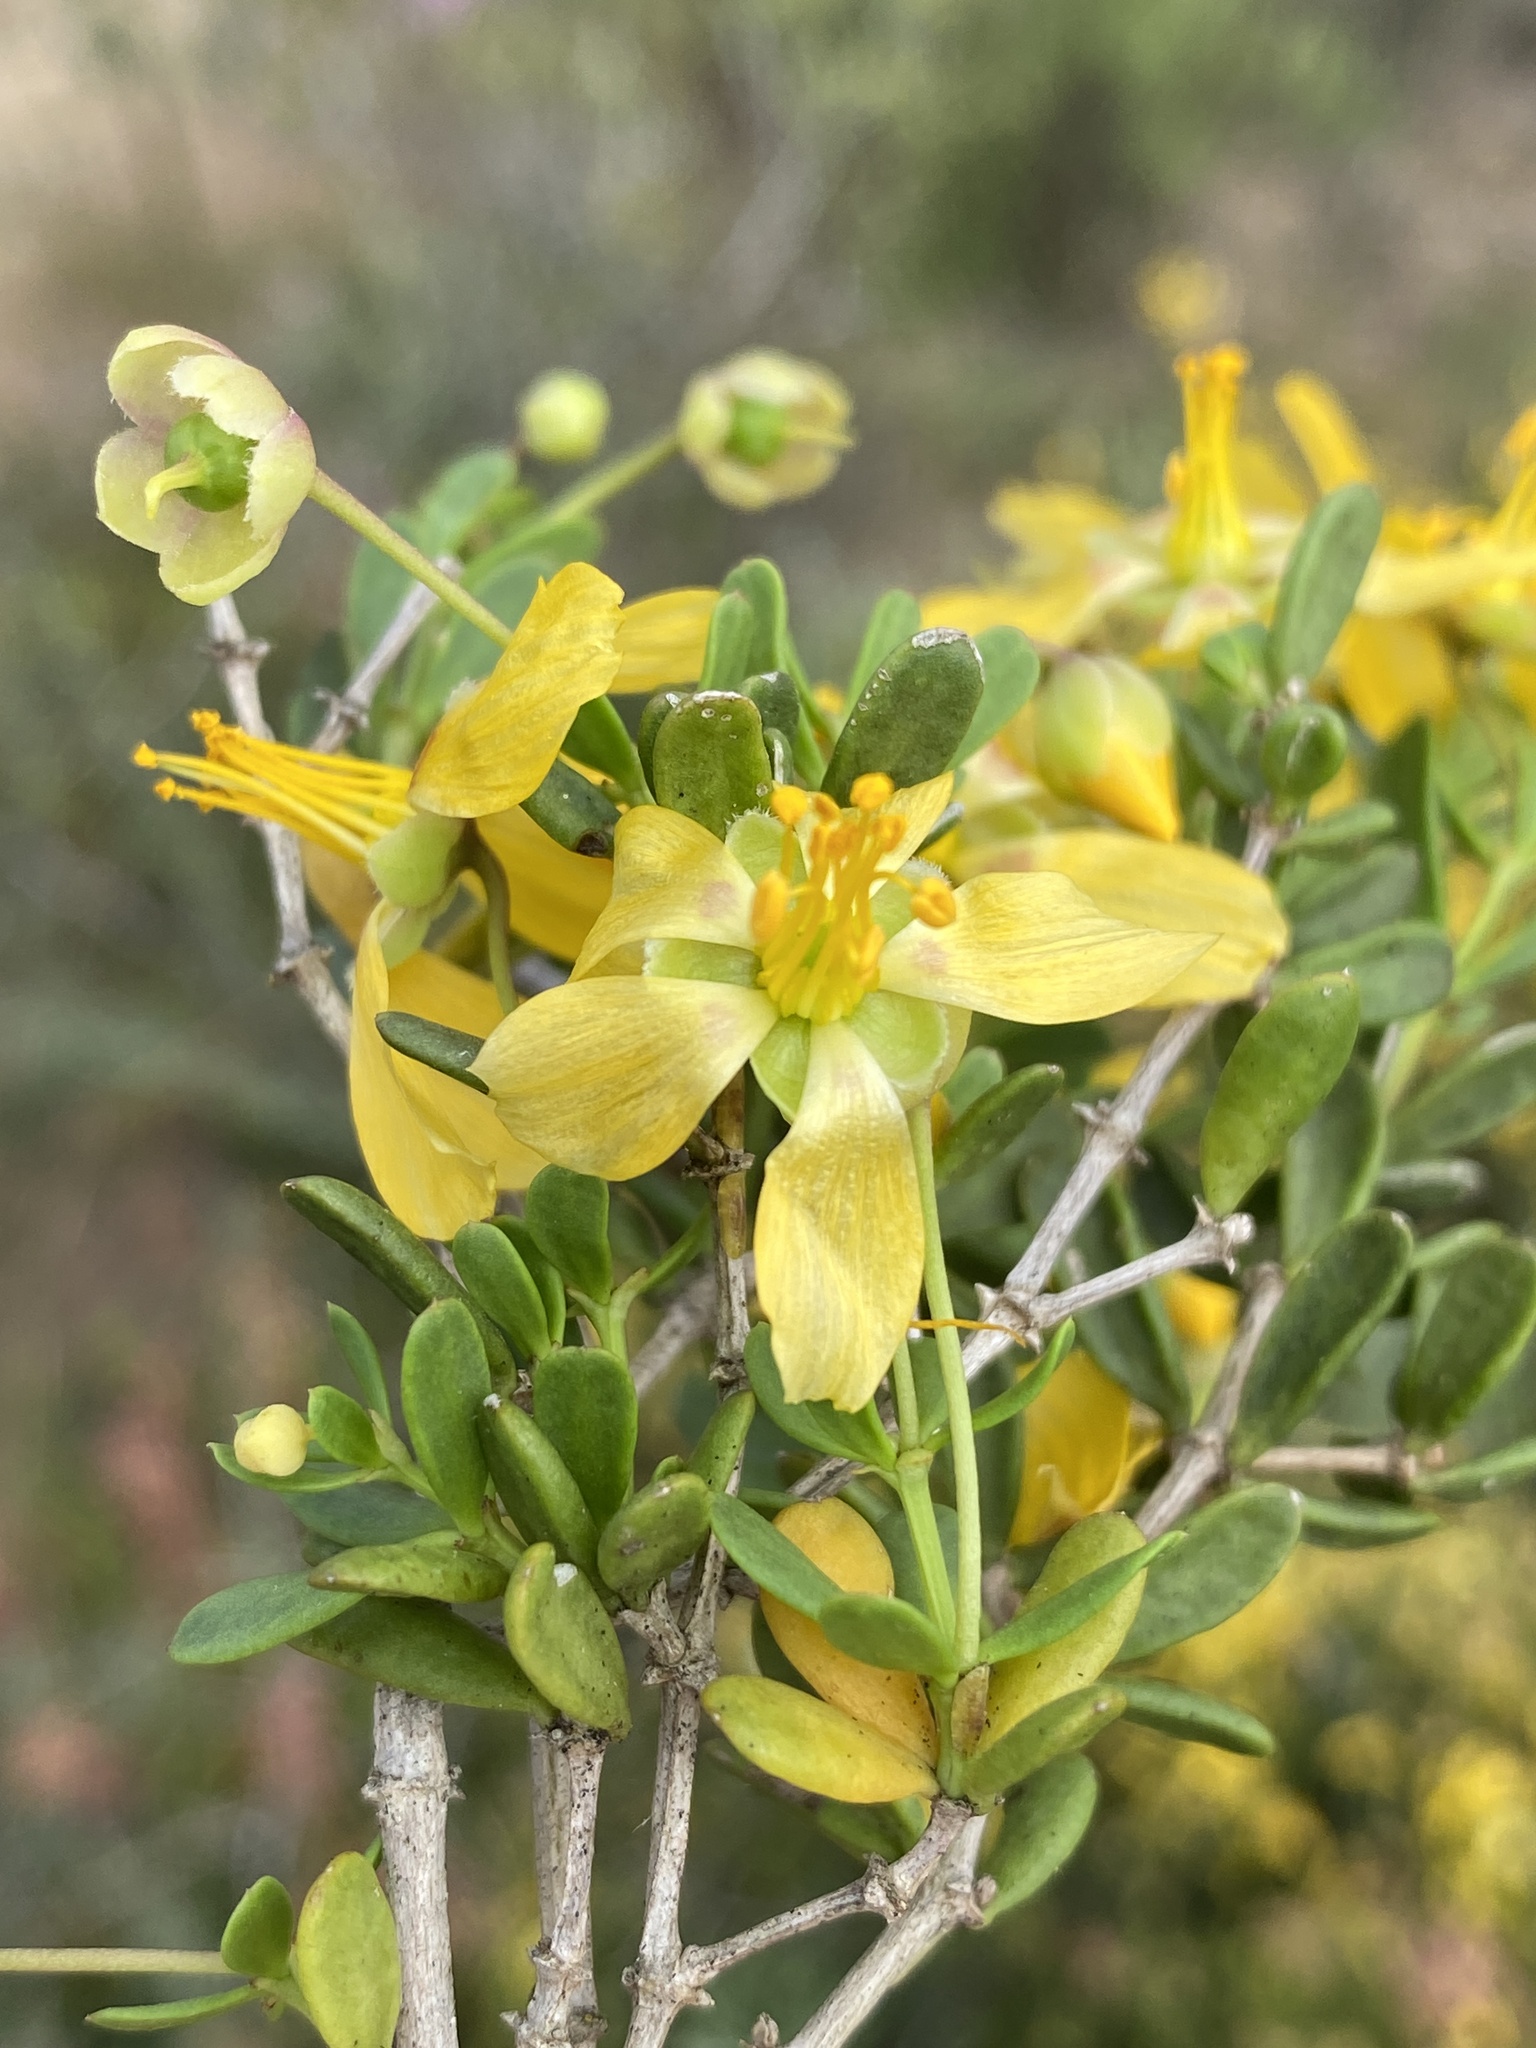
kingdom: Plantae
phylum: Tracheophyta
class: Magnoliopsida
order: Zygophyllales
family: Zygophyllaceae
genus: Roepera
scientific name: Roepera flexuosa
